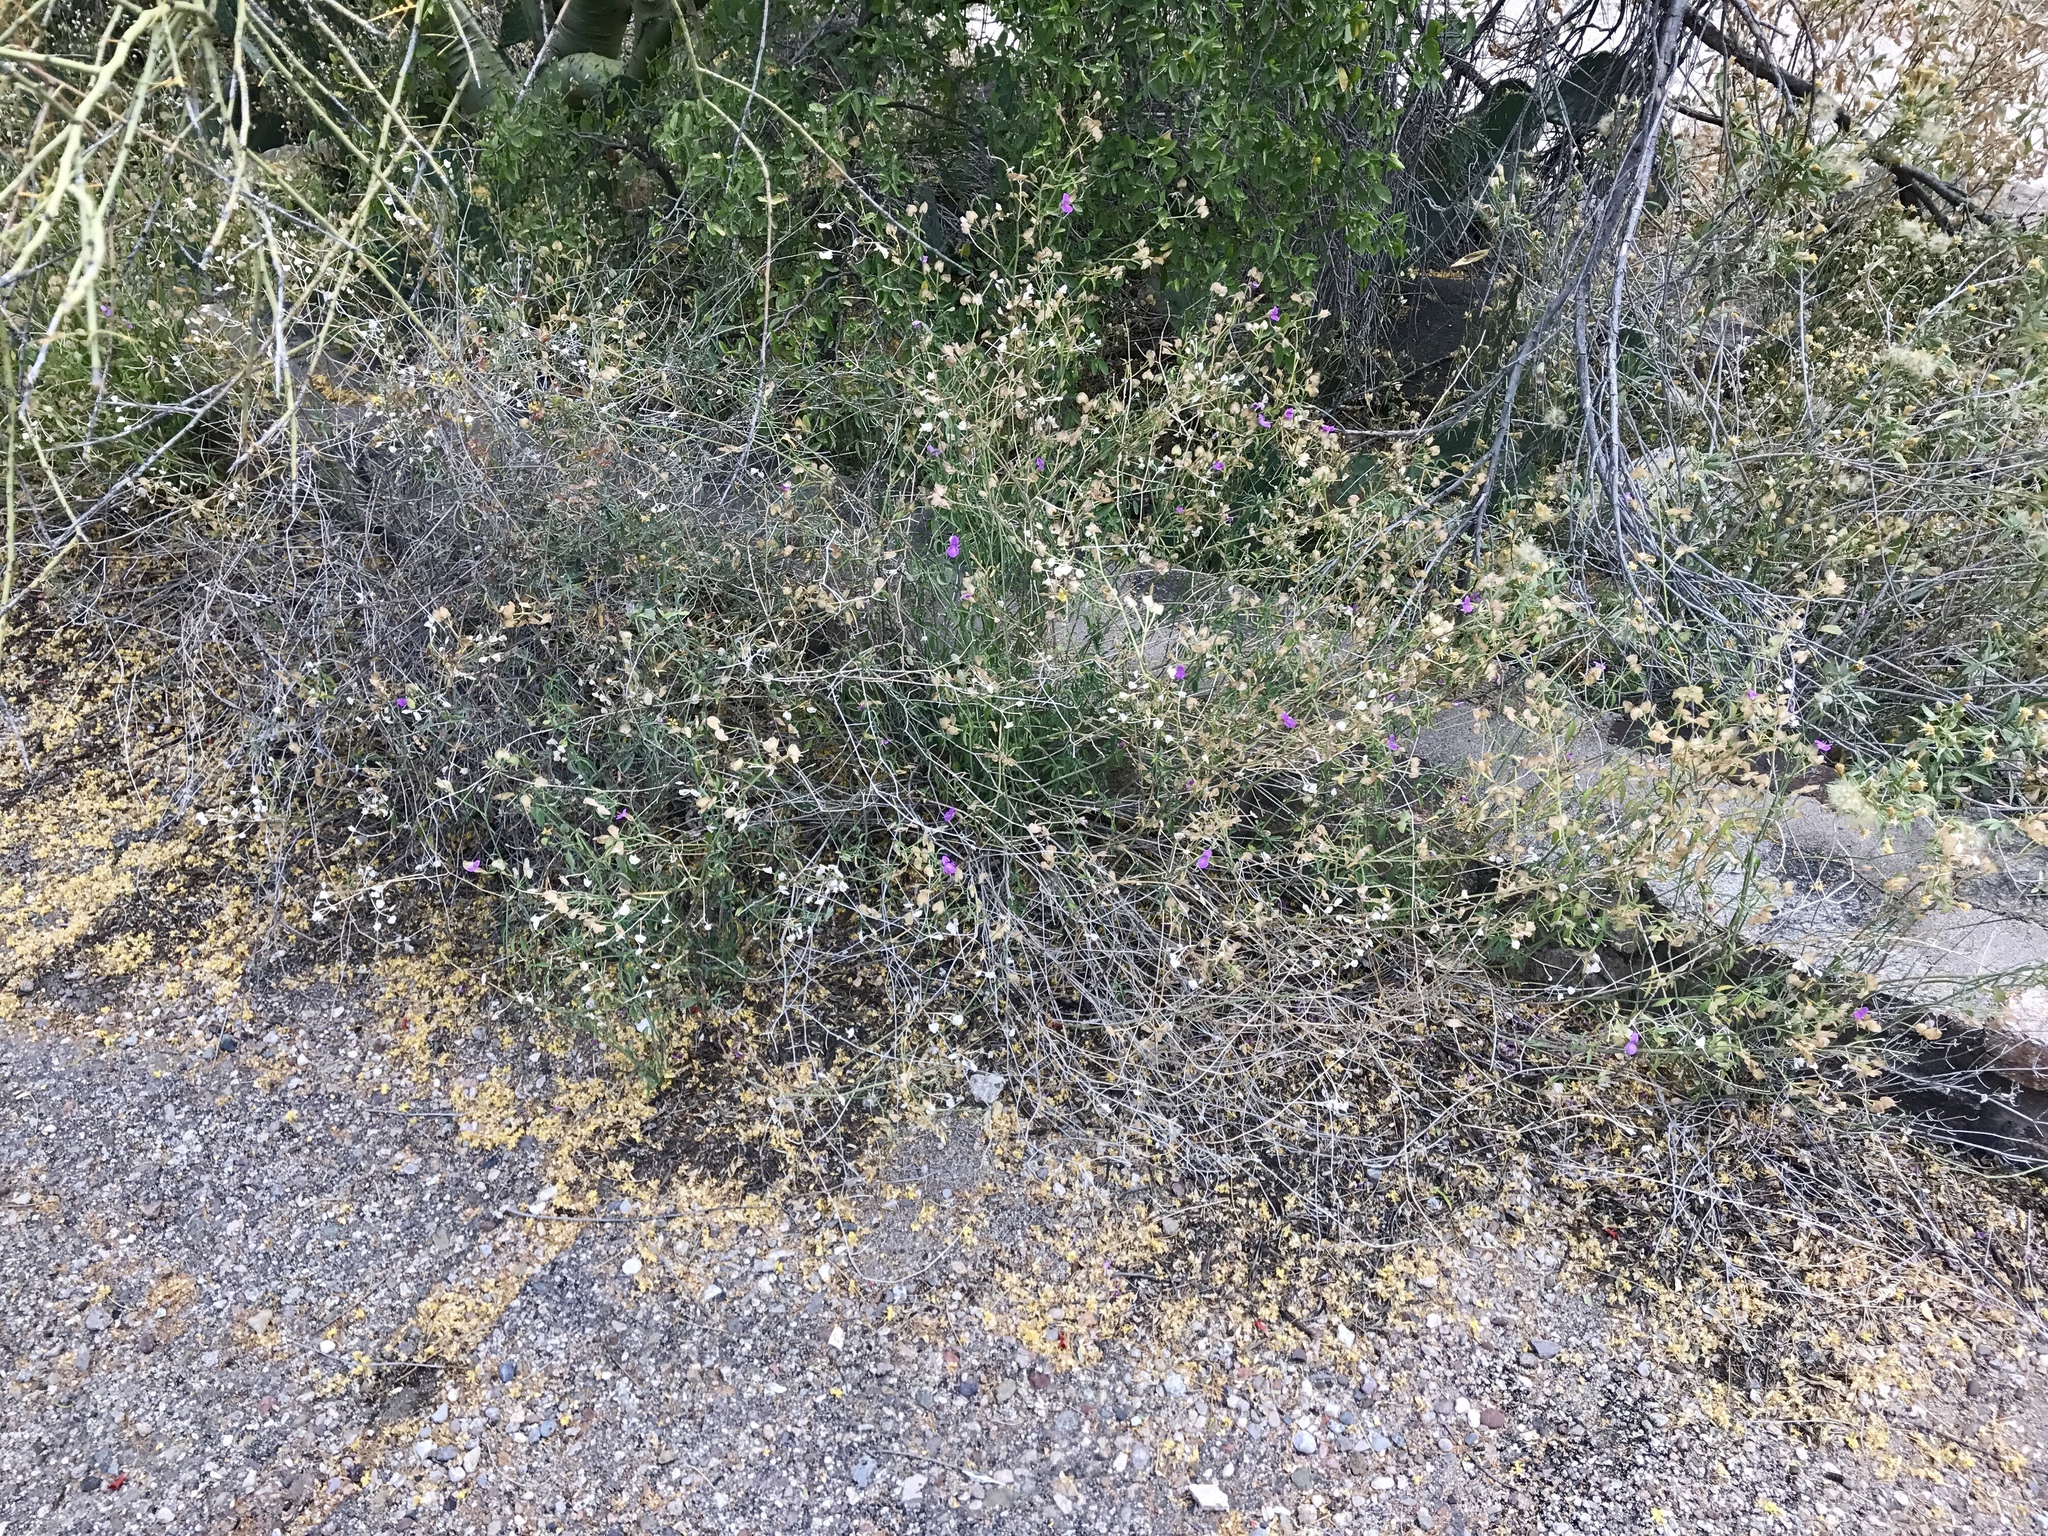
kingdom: Plantae
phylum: Tracheophyta
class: Magnoliopsida
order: Lamiales
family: Acanthaceae
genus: Dicliptera
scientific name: Dicliptera resupinata
